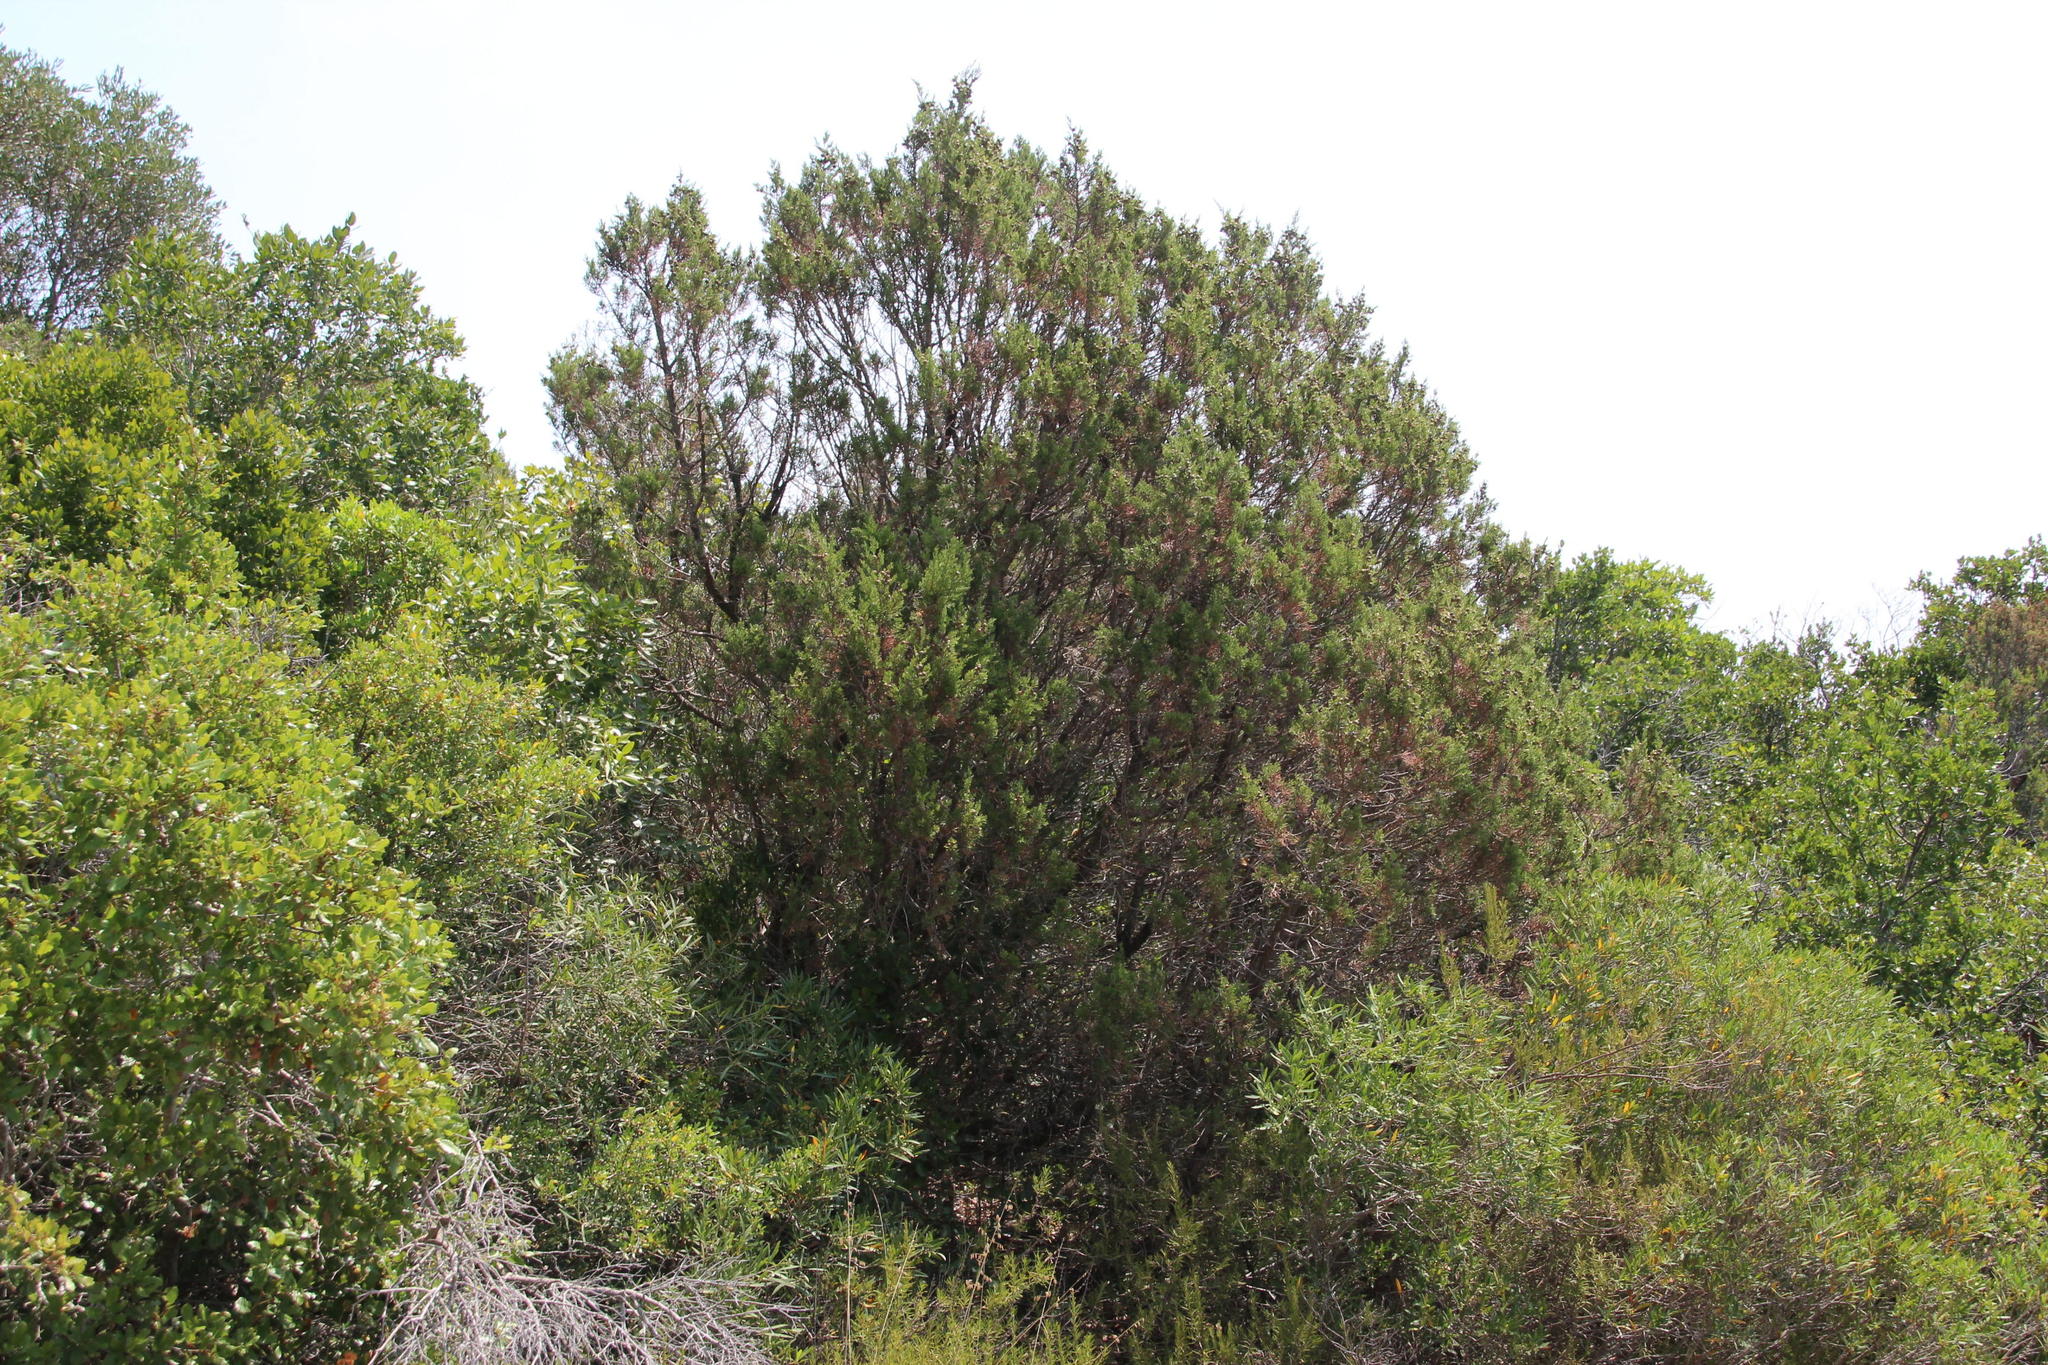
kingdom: Plantae
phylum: Tracheophyta
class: Pinopsida
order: Pinales
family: Cupressaceae
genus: Juniperus
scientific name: Juniperus phoenicea
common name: Phoenician juniper
